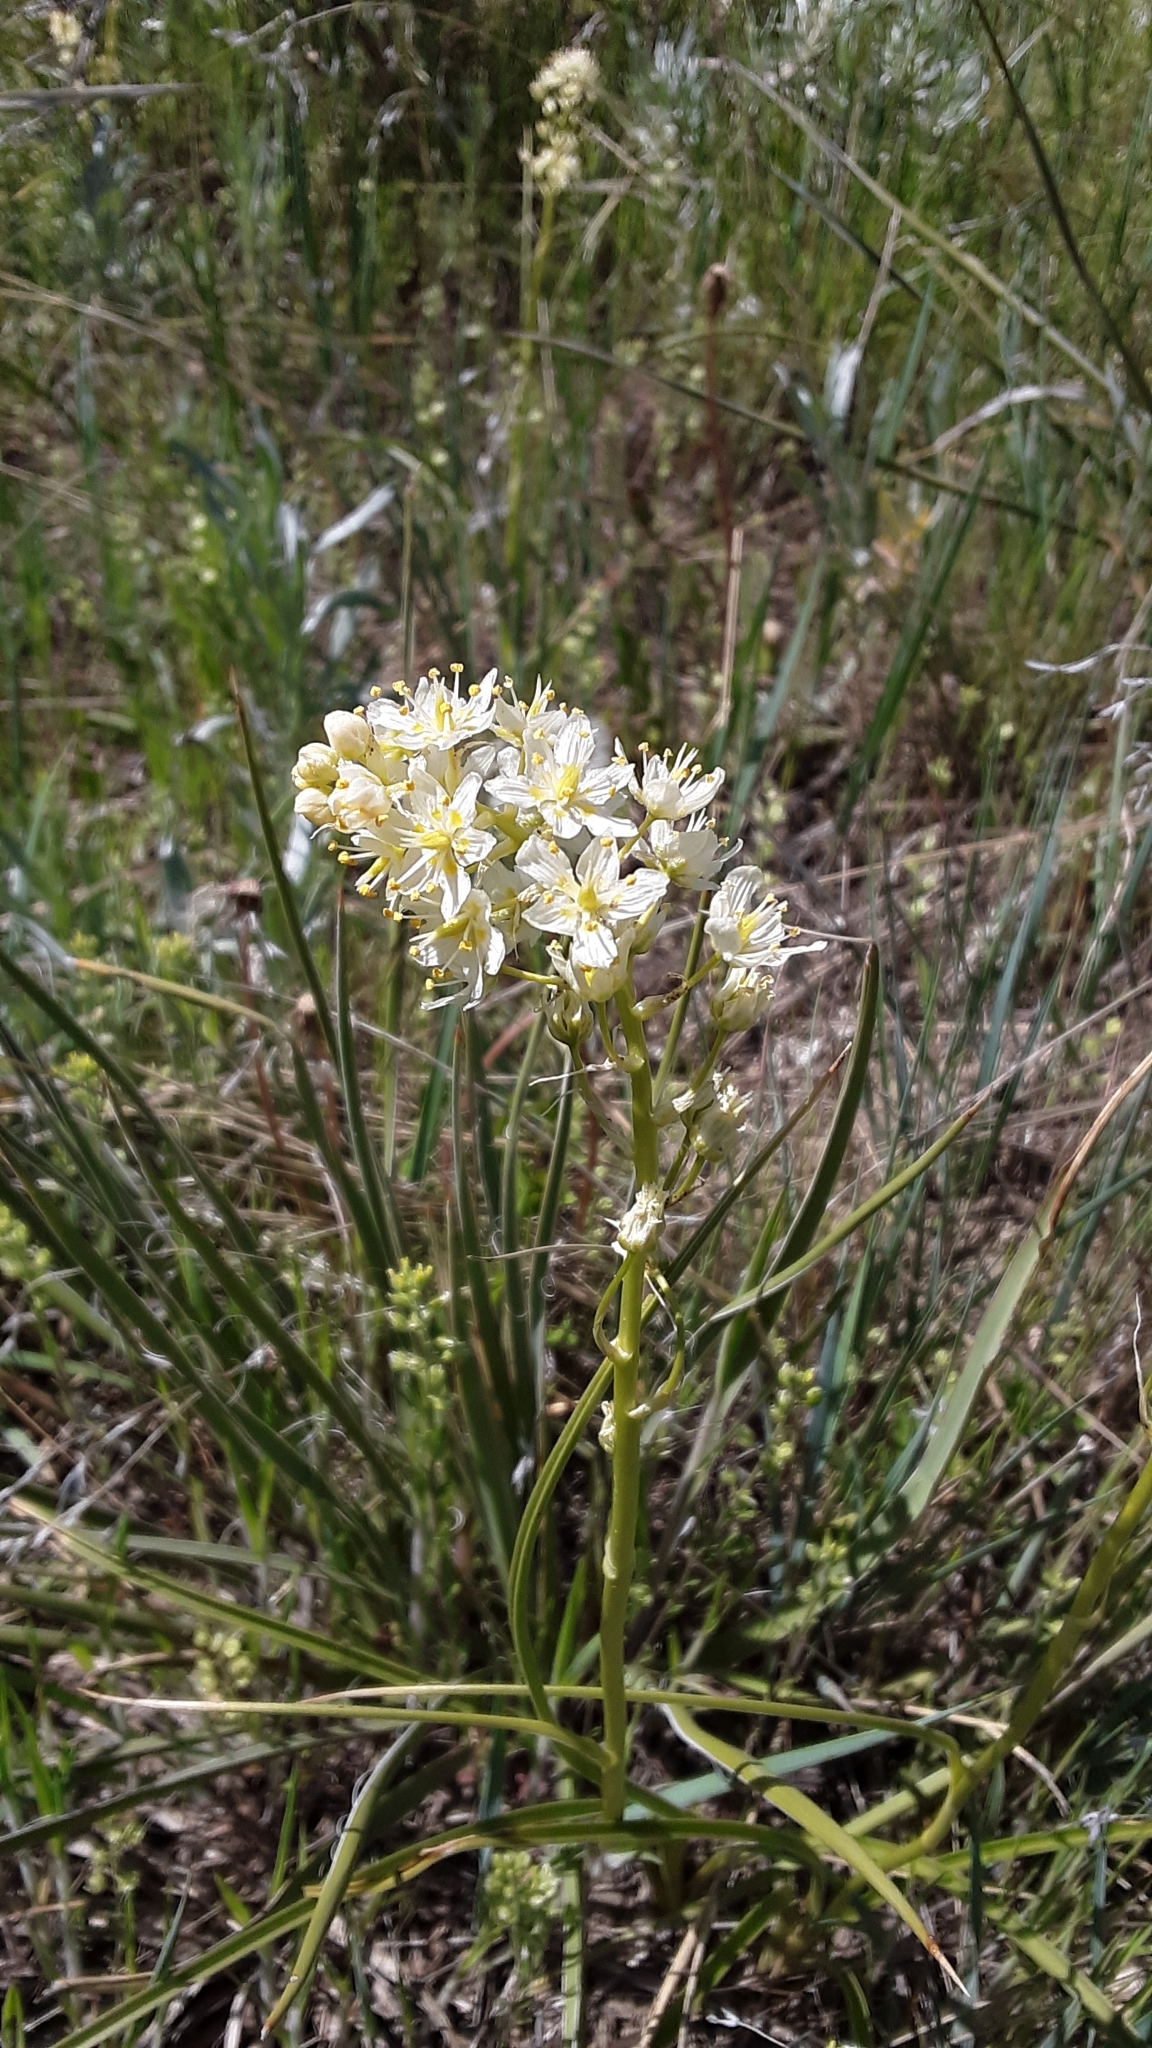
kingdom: Plantae
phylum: Tracheophyta
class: Liliopsida
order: Liliales
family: Melanthiaceae
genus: Toxicoscordion
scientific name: Toxicoscordion venenosum
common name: Meadow death camas
